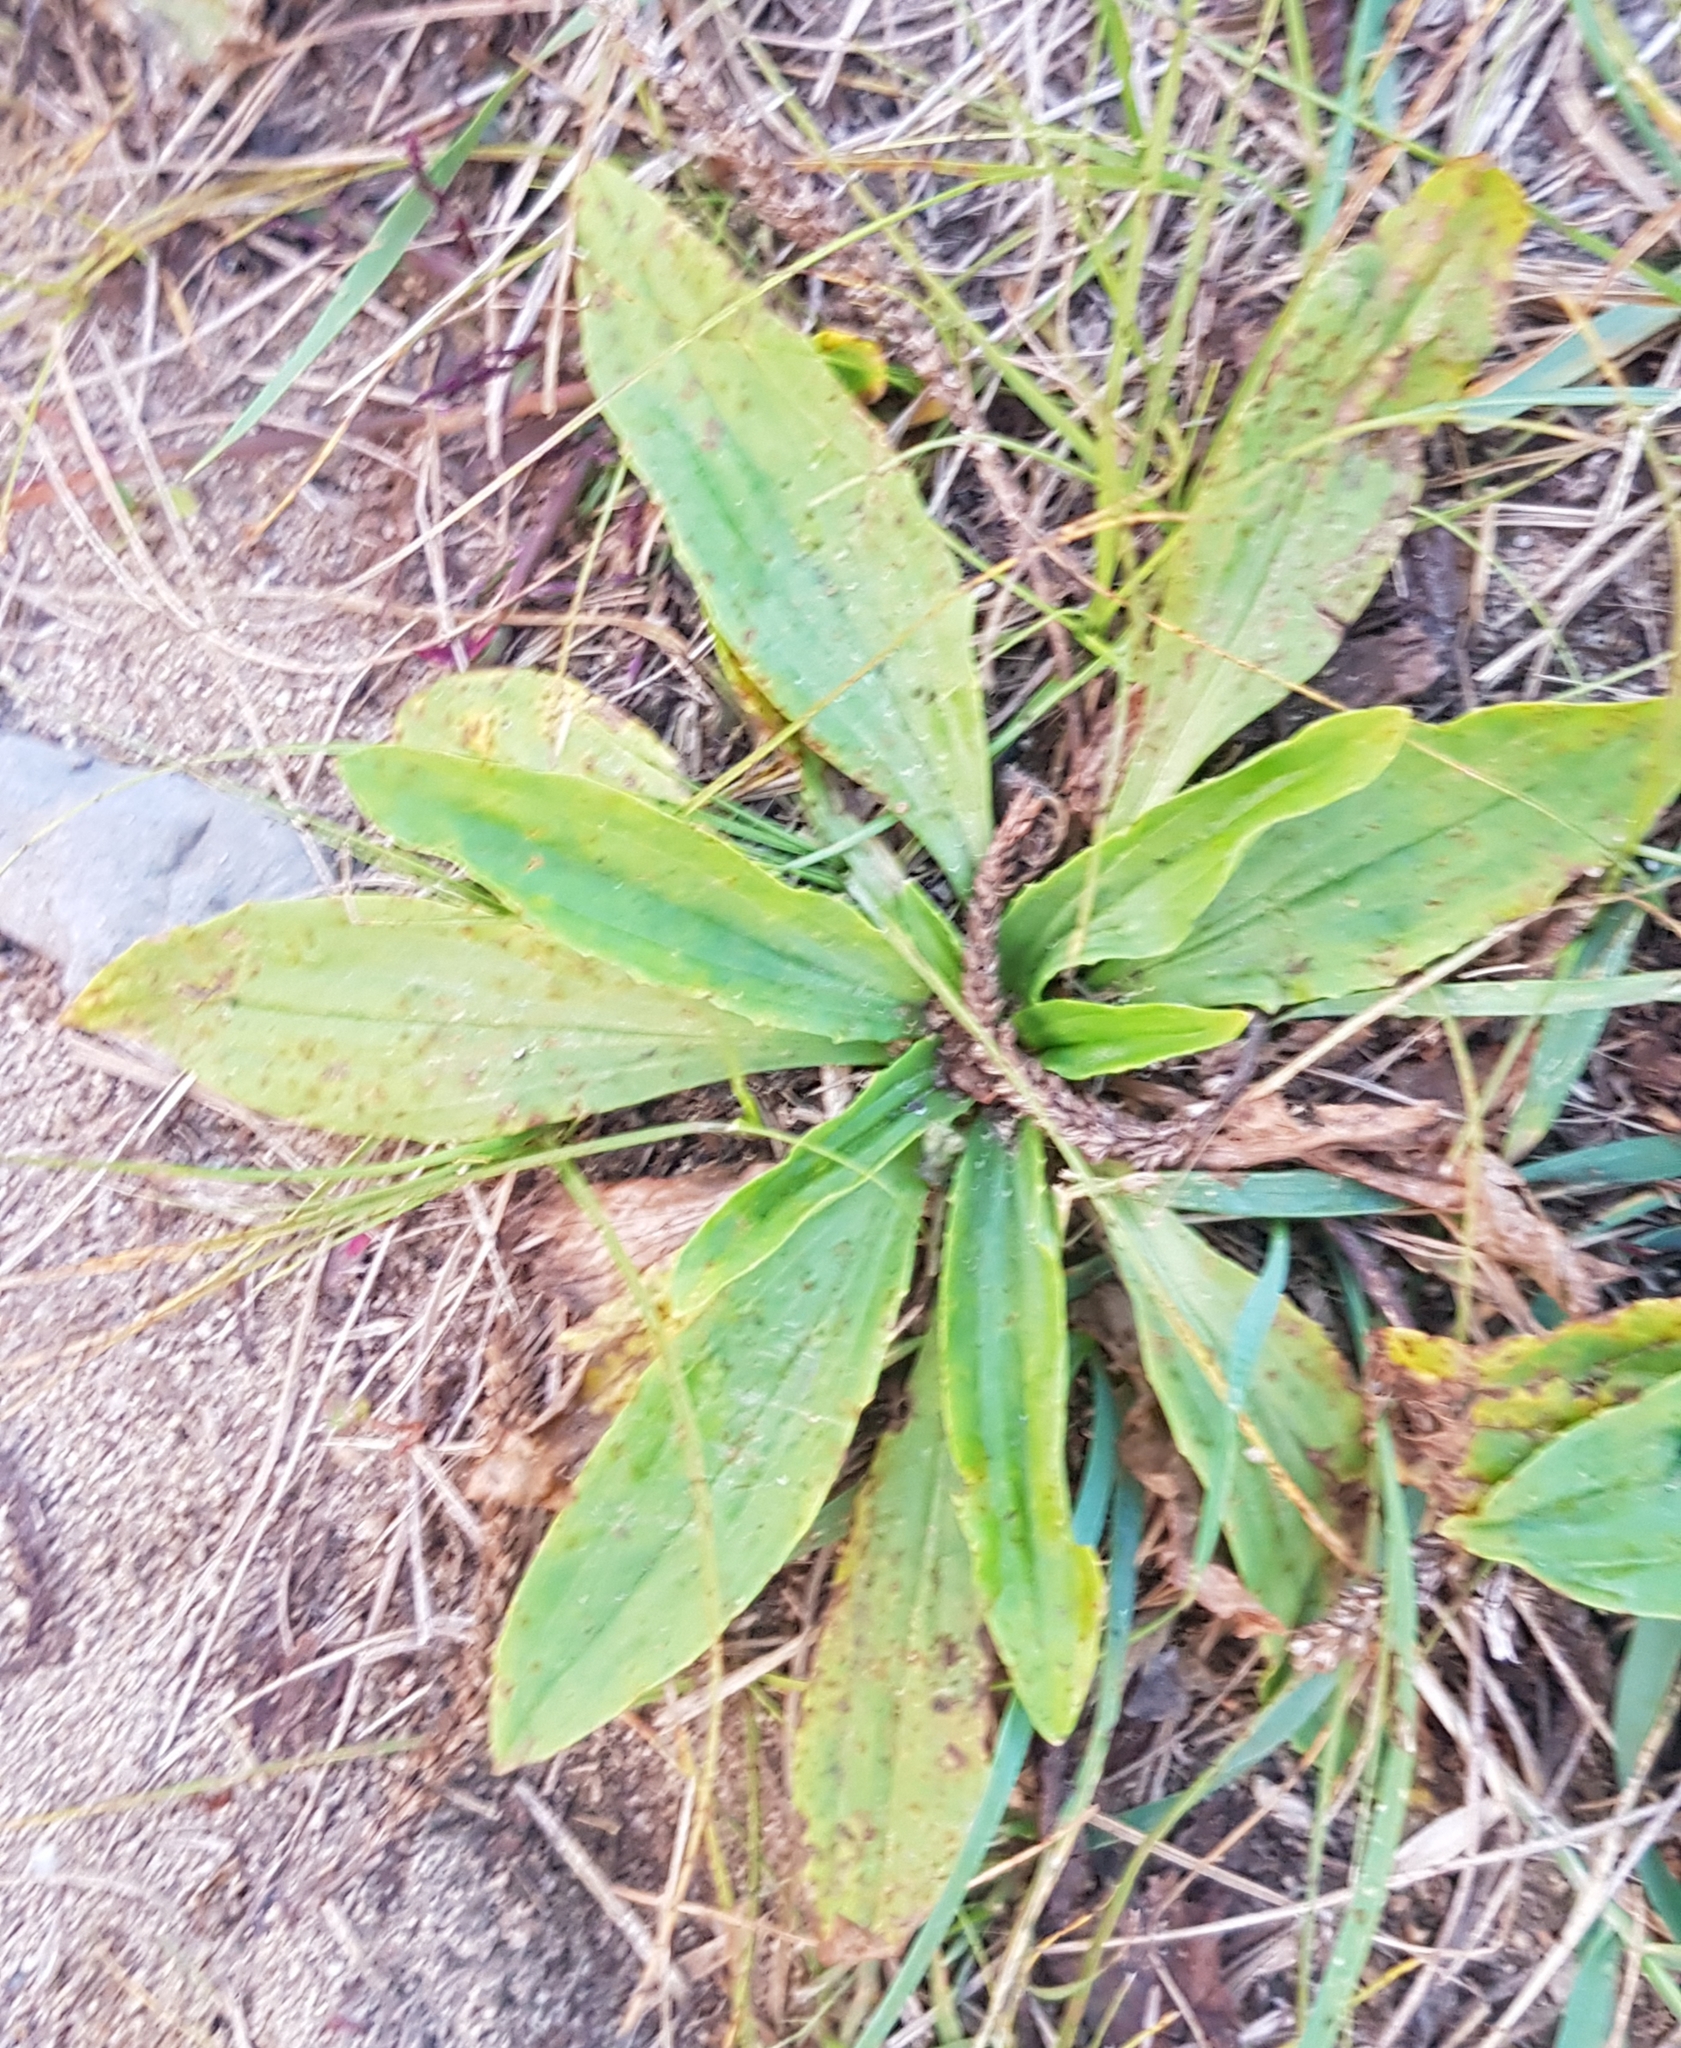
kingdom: Plantae
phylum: Tracheophyta
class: Magnoliopsida
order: Lamiales
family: Plantaginaceae
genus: Plantago
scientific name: Plantago depressa
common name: Depressed plantain
